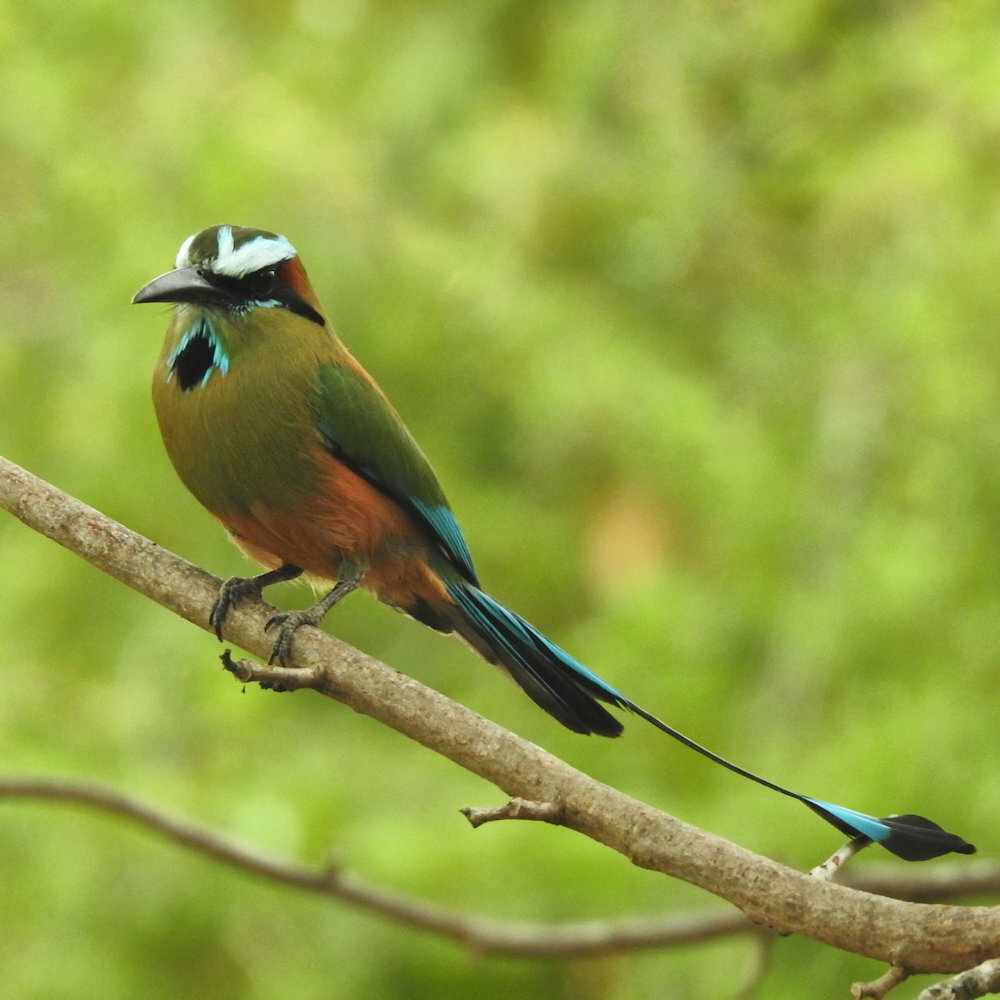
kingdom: Animalia
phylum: Chordata
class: Aves
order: Coraciiformes
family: Momotidae
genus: Eumomota
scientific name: Eumomota superciliosa
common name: Turquoise-browed motmot
